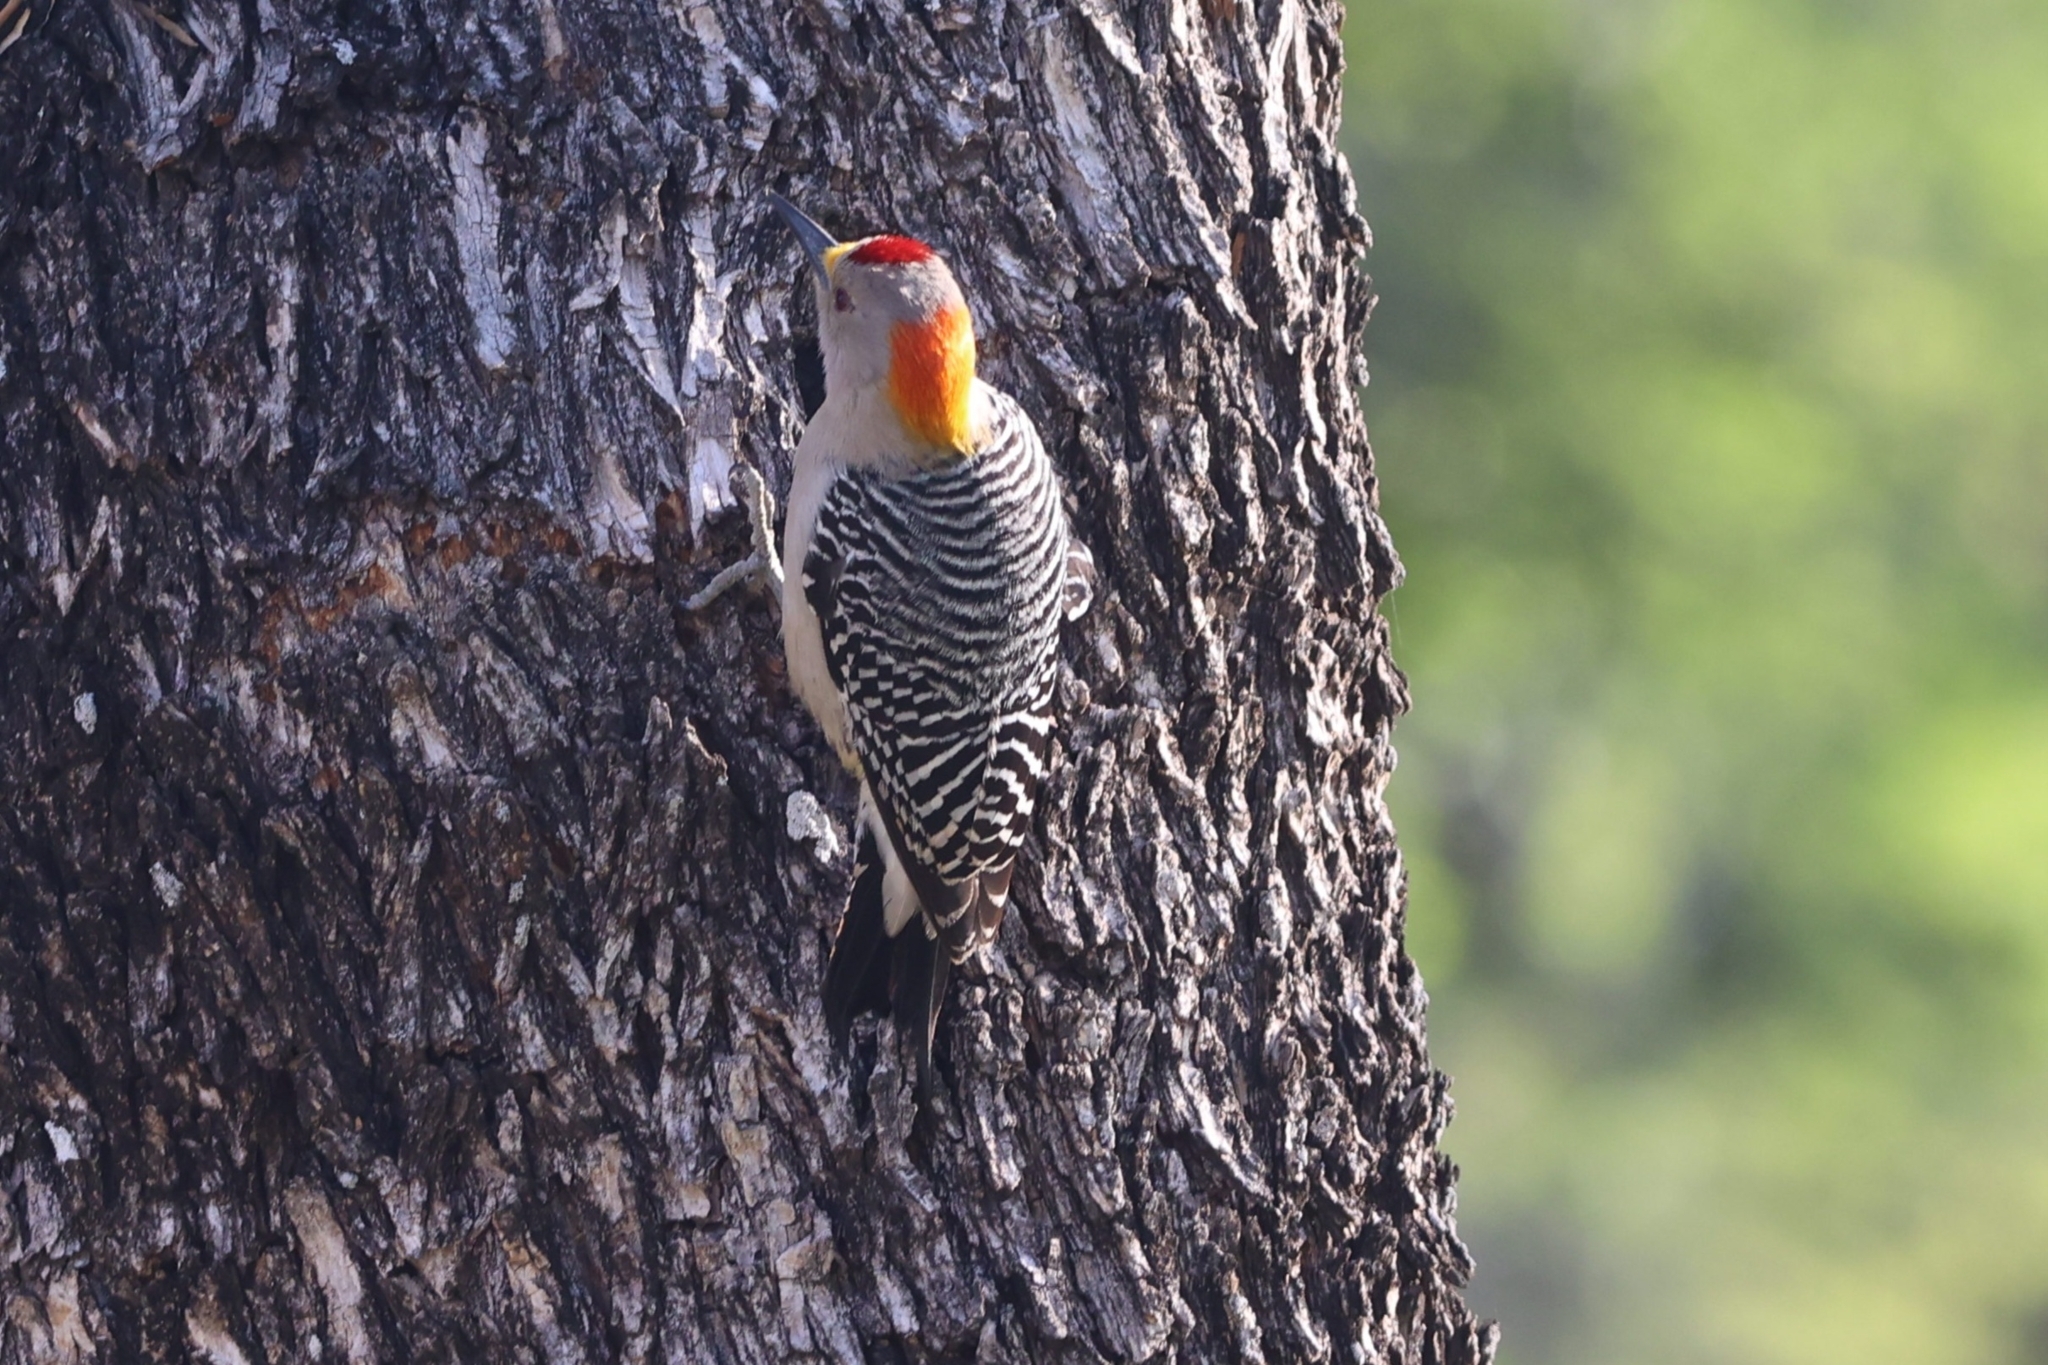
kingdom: Animalia
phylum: Chordata
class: Aves
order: Piciformes
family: Picidae
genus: Melanerpes
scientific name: Melanerpes aurifrons
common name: Golden-fronted woodpecker
